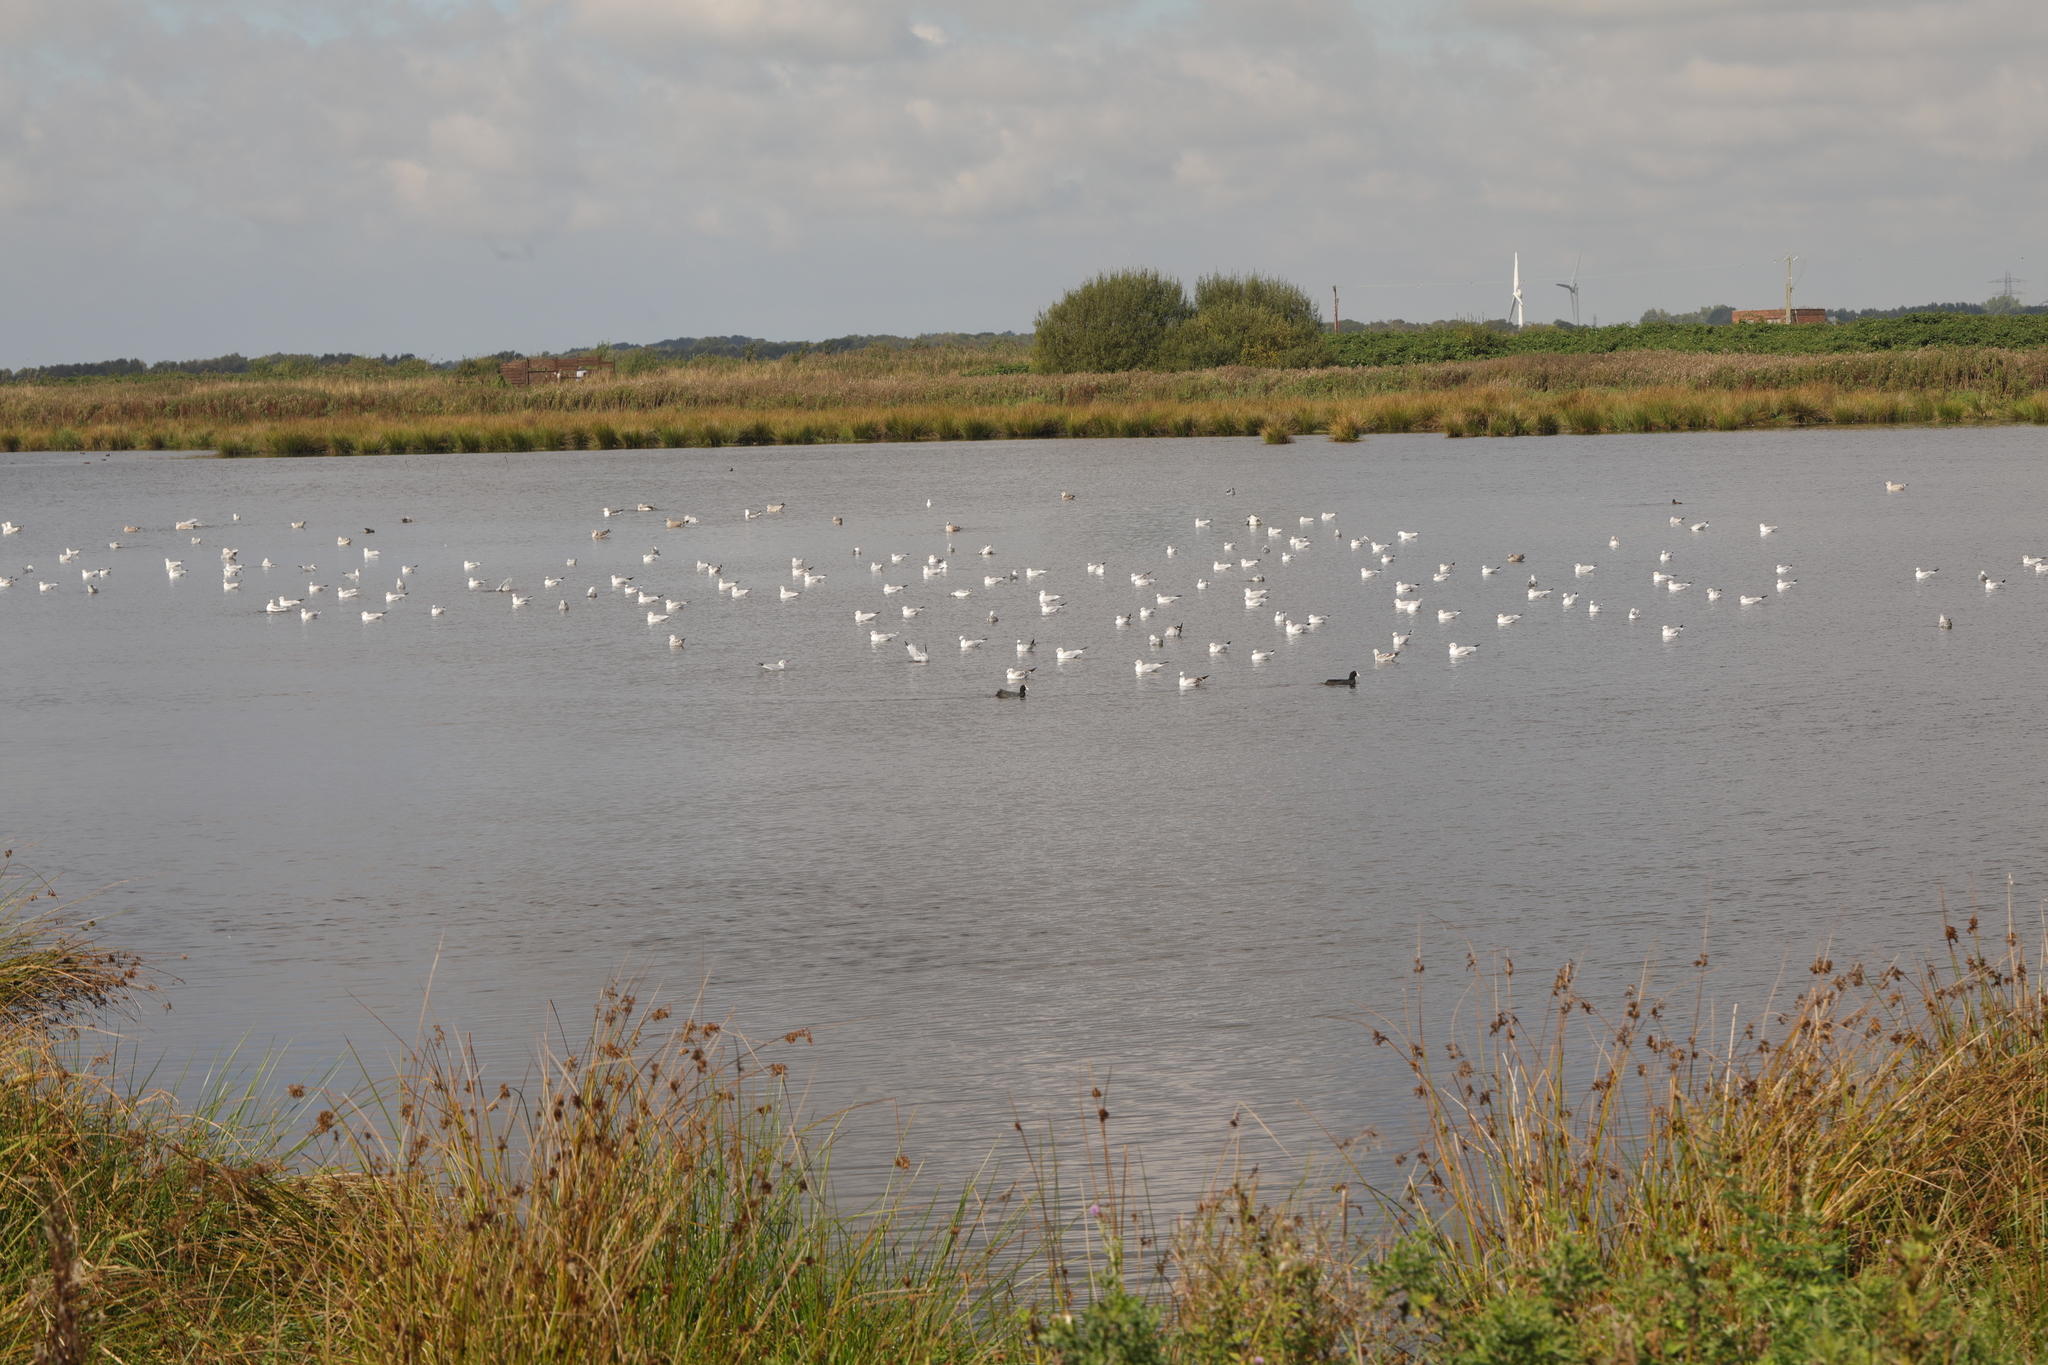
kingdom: Animalia
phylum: Chordata
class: Aves
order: Gruiformes
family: Rallidae
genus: Fulica
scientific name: Fulica atra
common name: Eurasian coot
